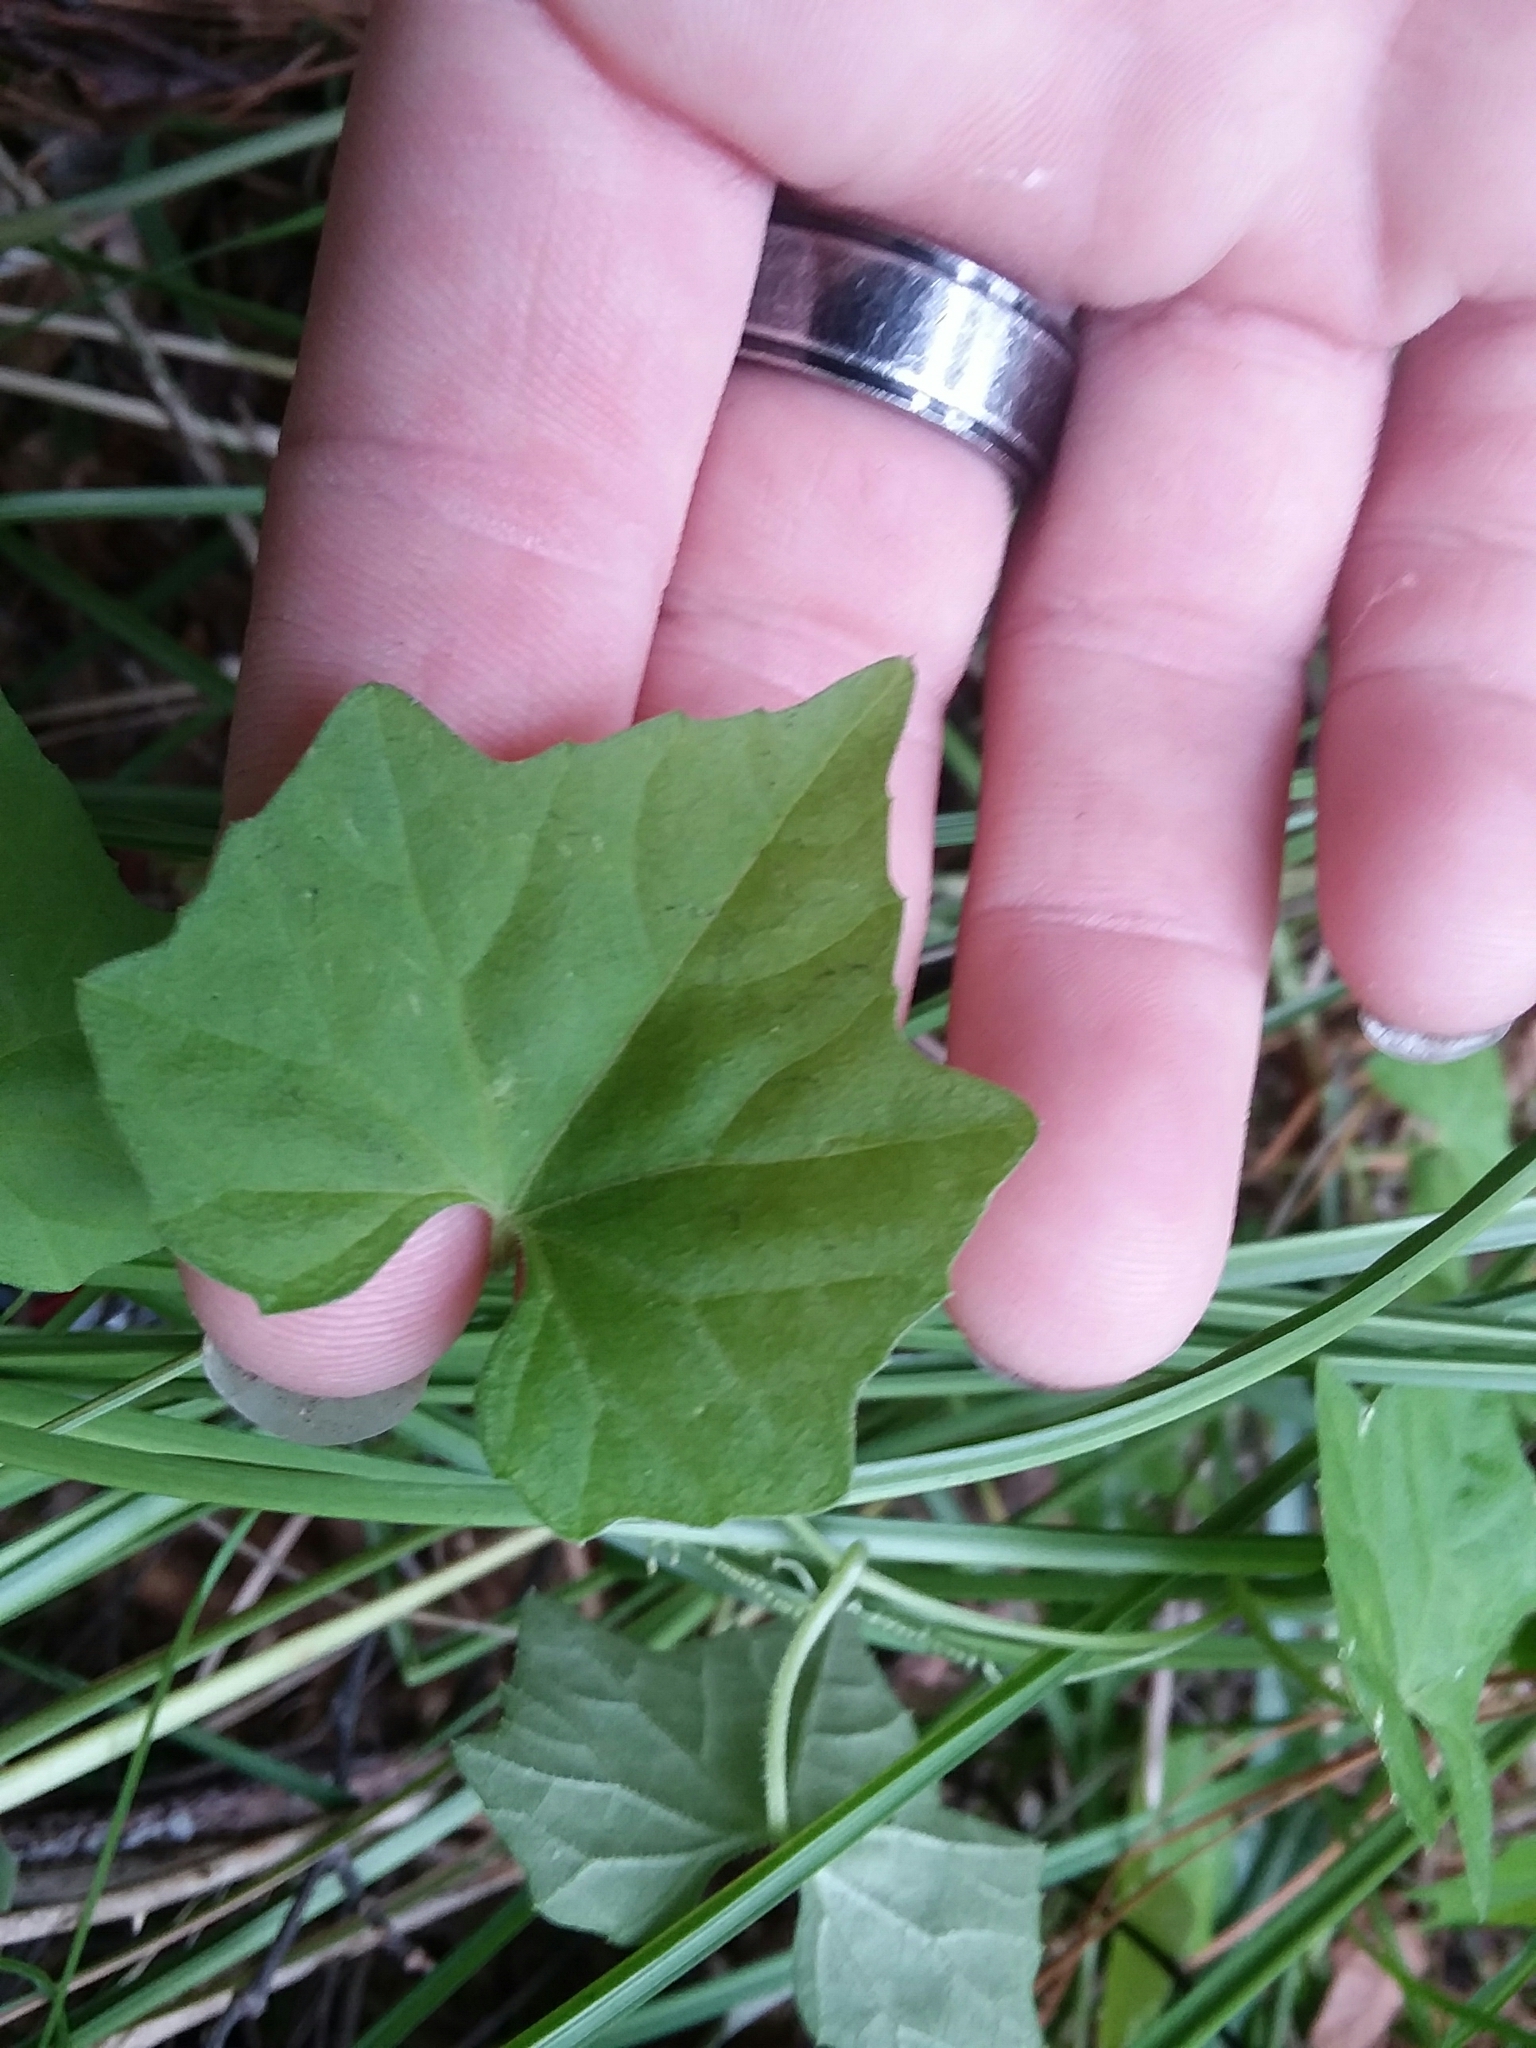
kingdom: Plantae
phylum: Tracheophyta
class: Magnoliopsida
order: Cucurbitales
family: Cucurbitaceae
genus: Melothria
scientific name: Melothria pendula
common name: Creeping-cucumber
